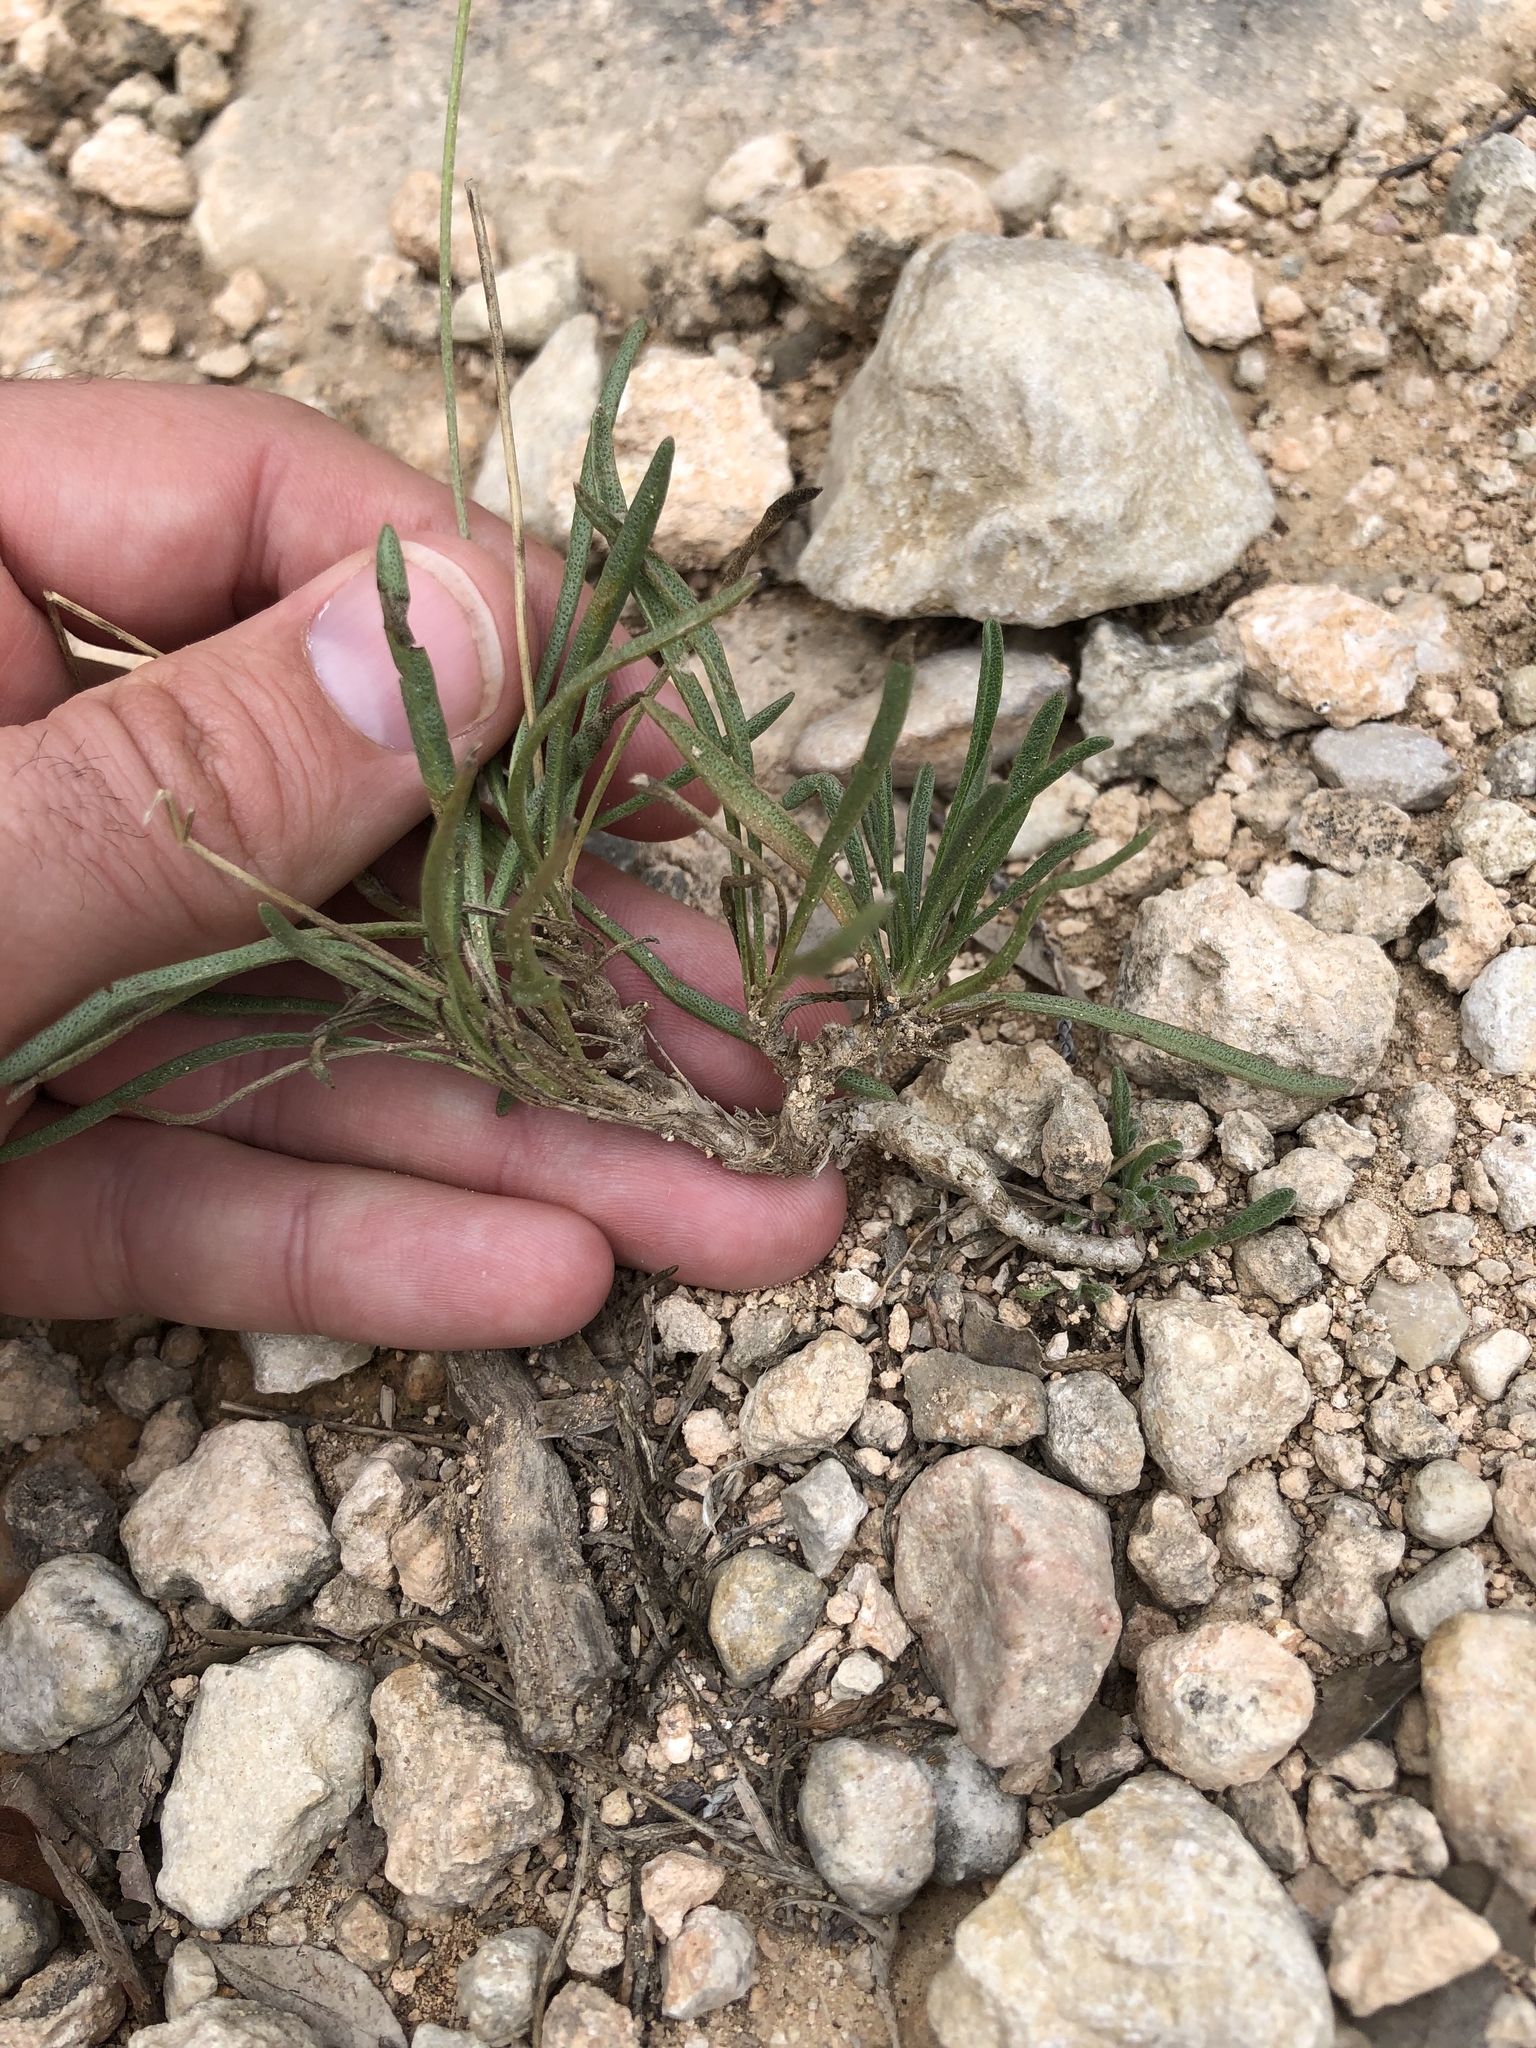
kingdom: Plantae
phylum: Tracheophyta
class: Magnoliopsida
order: Asterales
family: Asteraceae
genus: Tetraneuris
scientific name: Tetraneuris scaposa
